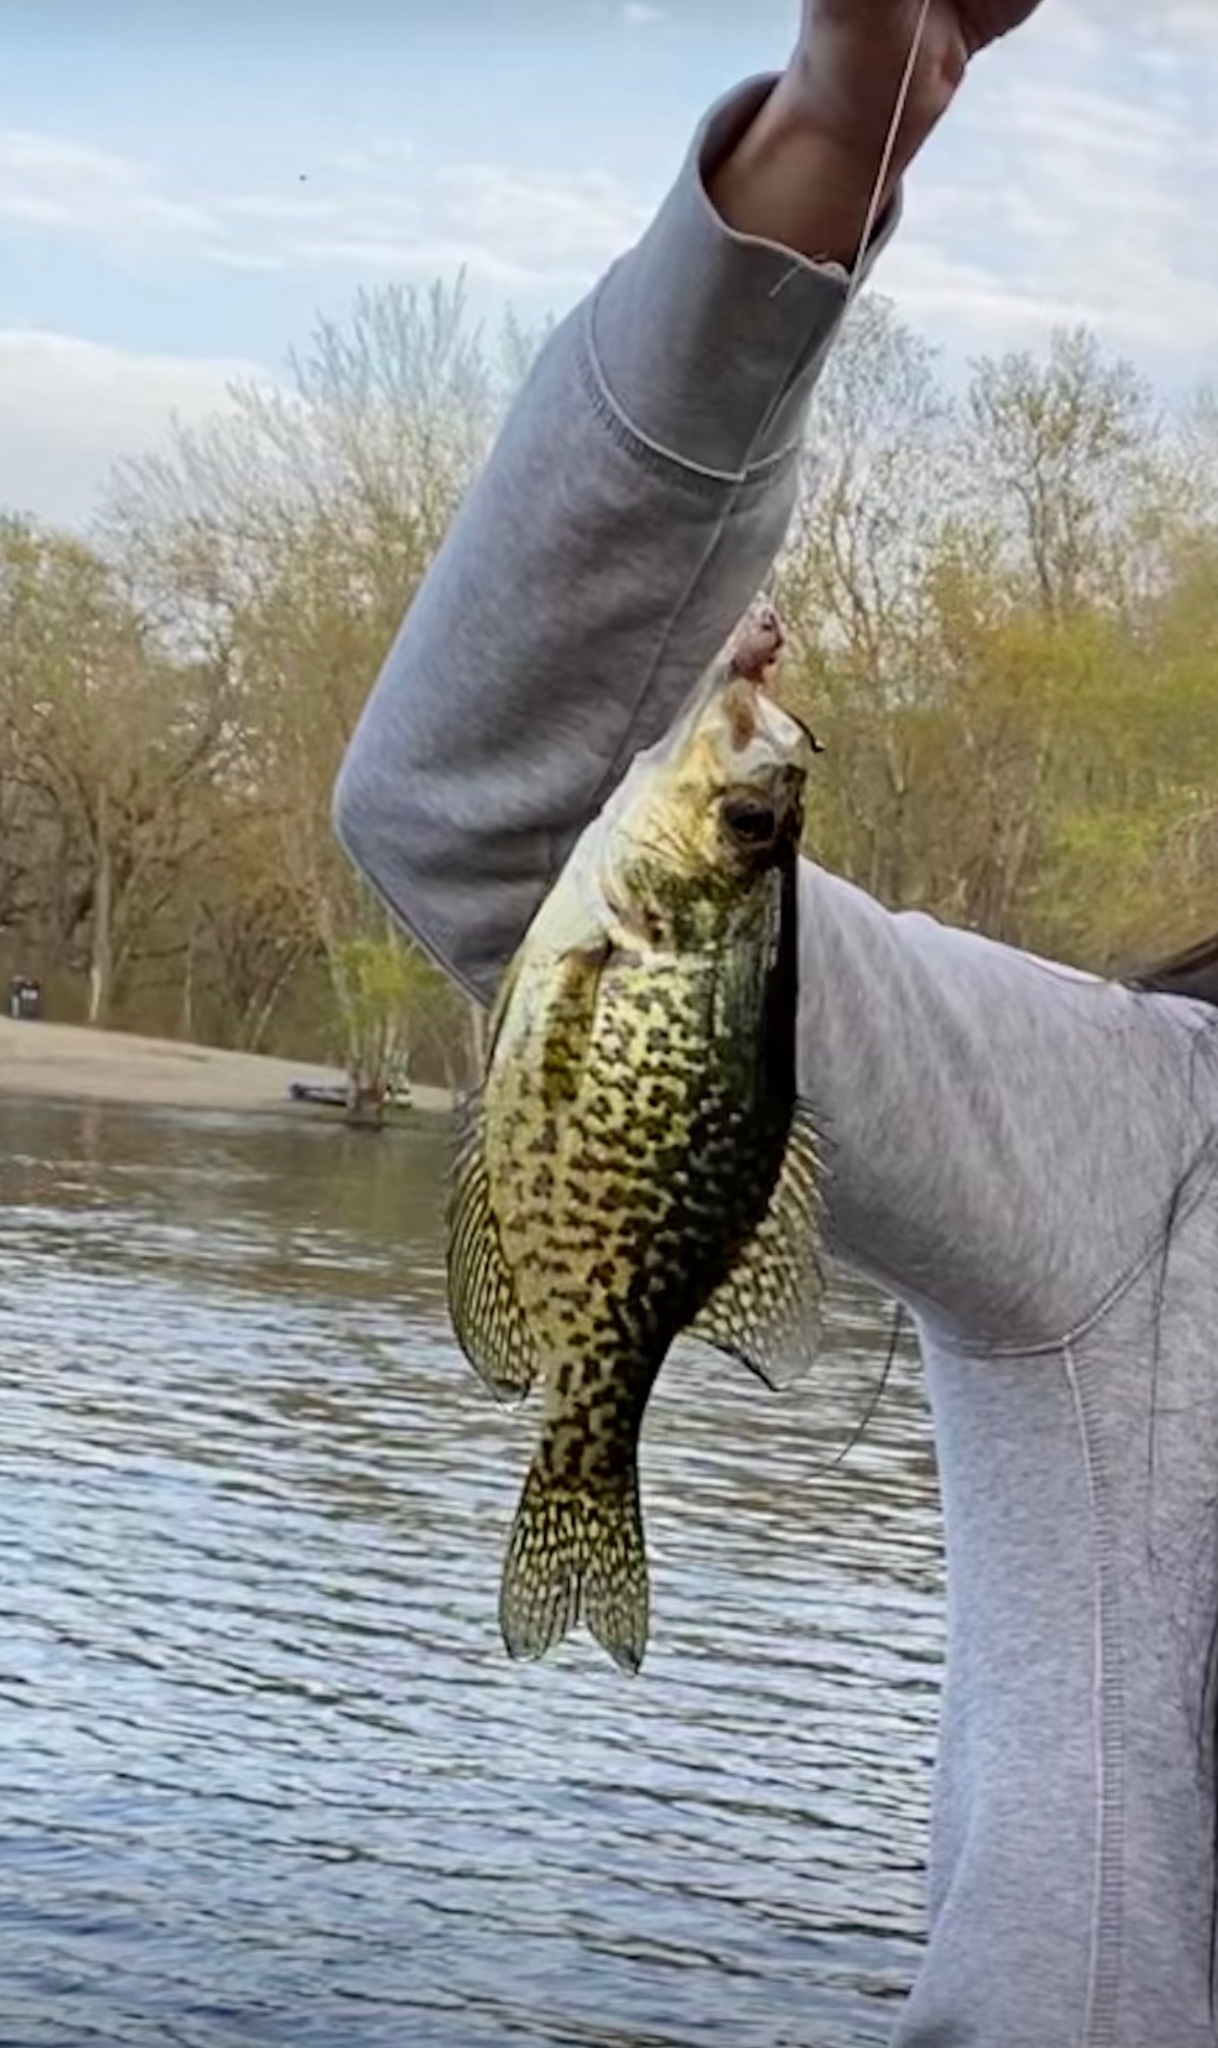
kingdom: Animalia
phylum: Chordata
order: Perciformes
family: Centrarchidae
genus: Pomoxis
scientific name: Pomoxis nigromaculatus
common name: Black crappie
